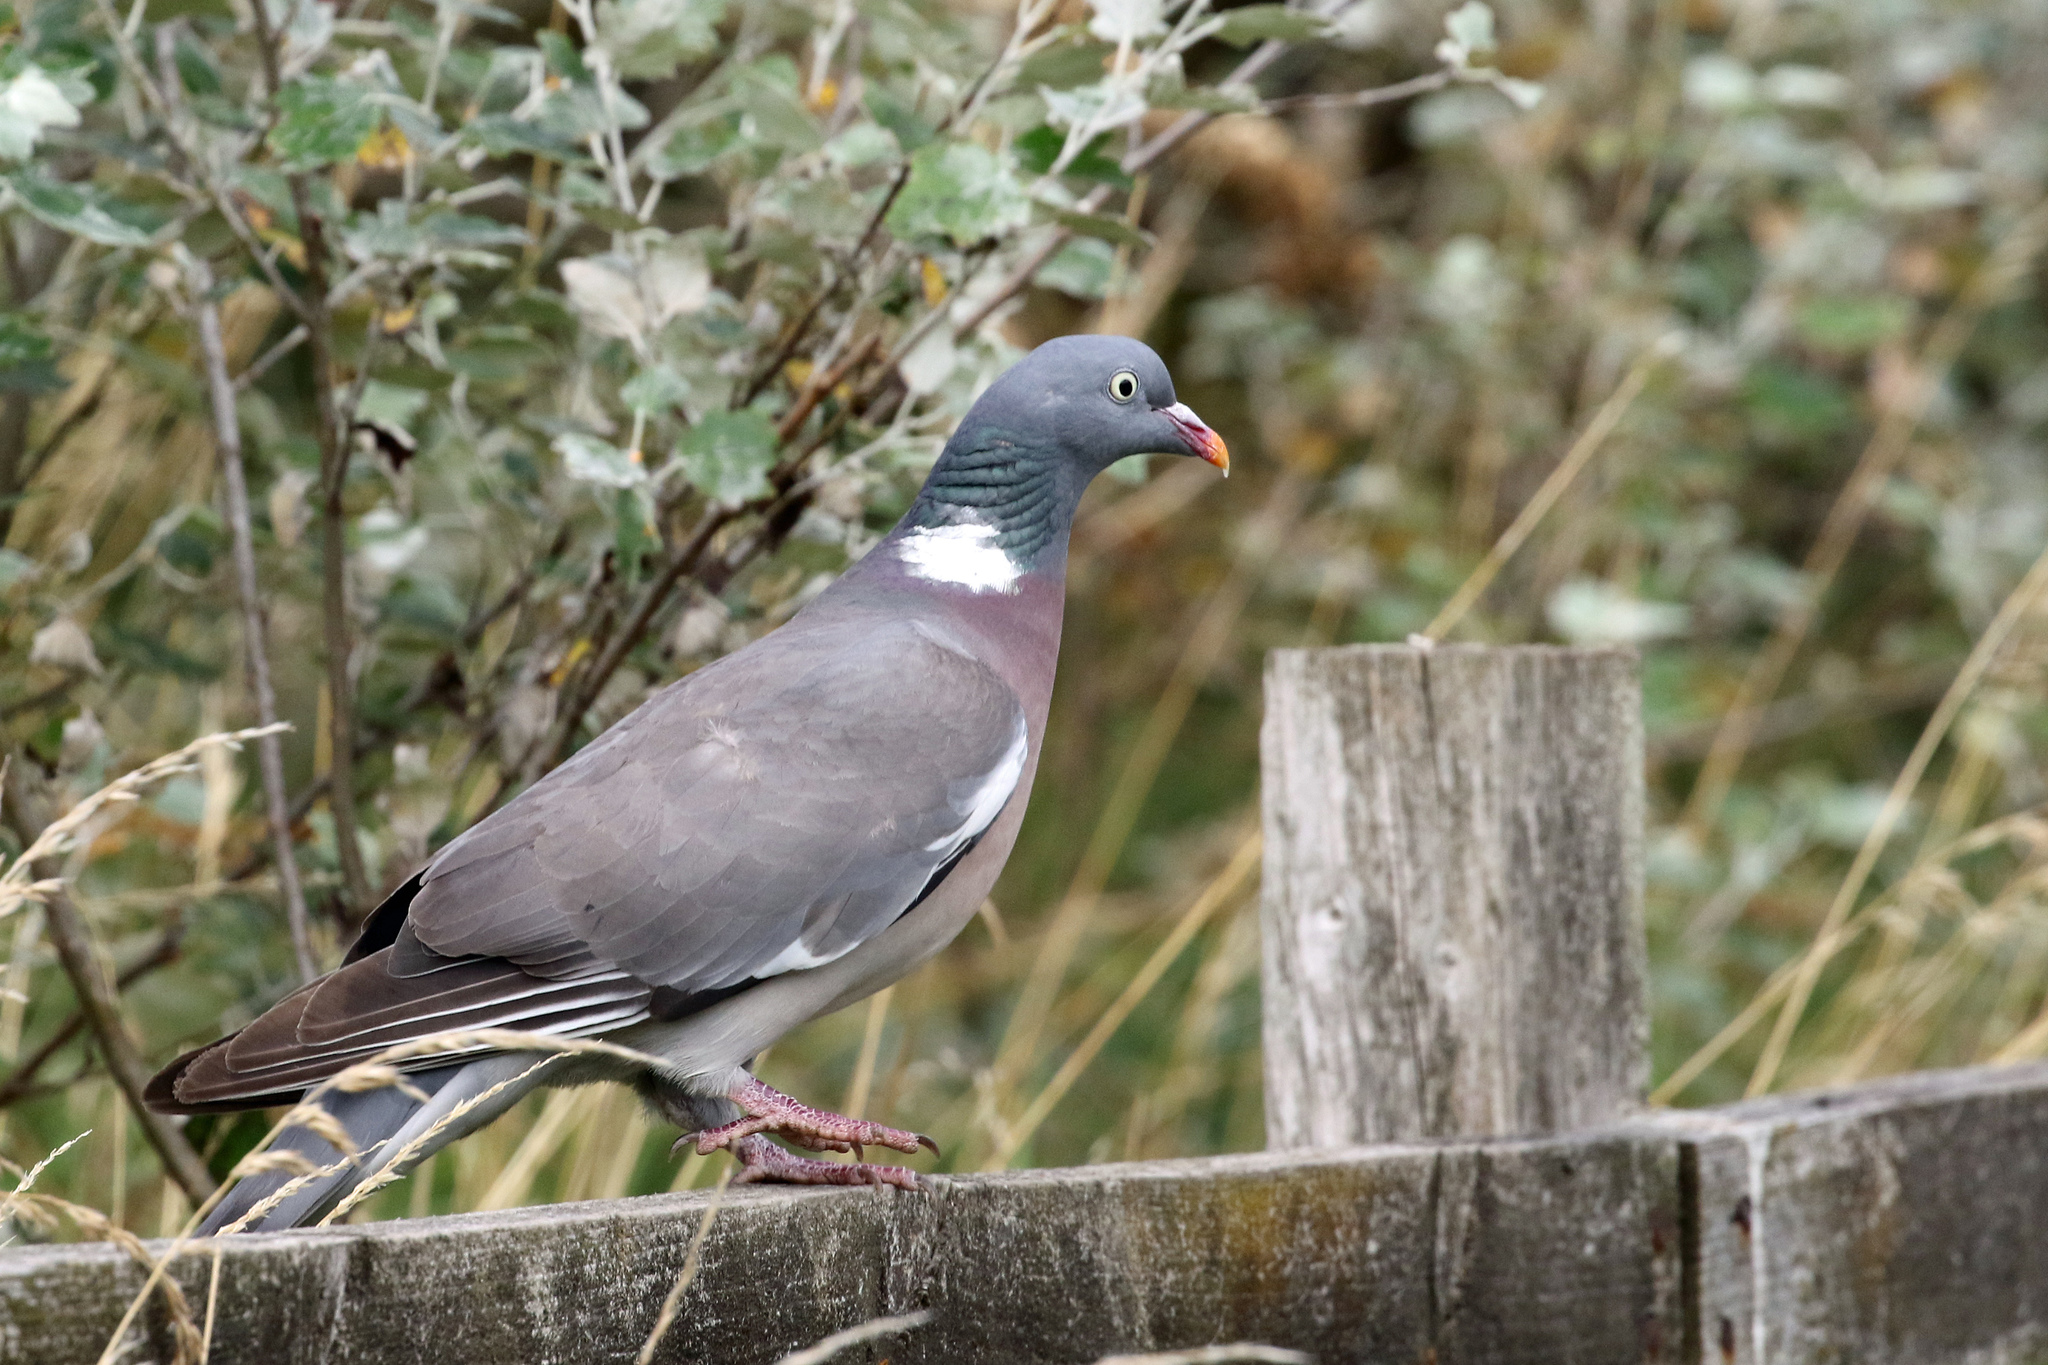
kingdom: Animalia
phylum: Chordata
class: Aves
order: Columbiformes
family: Columbidae
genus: Columba
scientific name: Columba palumbus
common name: Common wood pigeon
